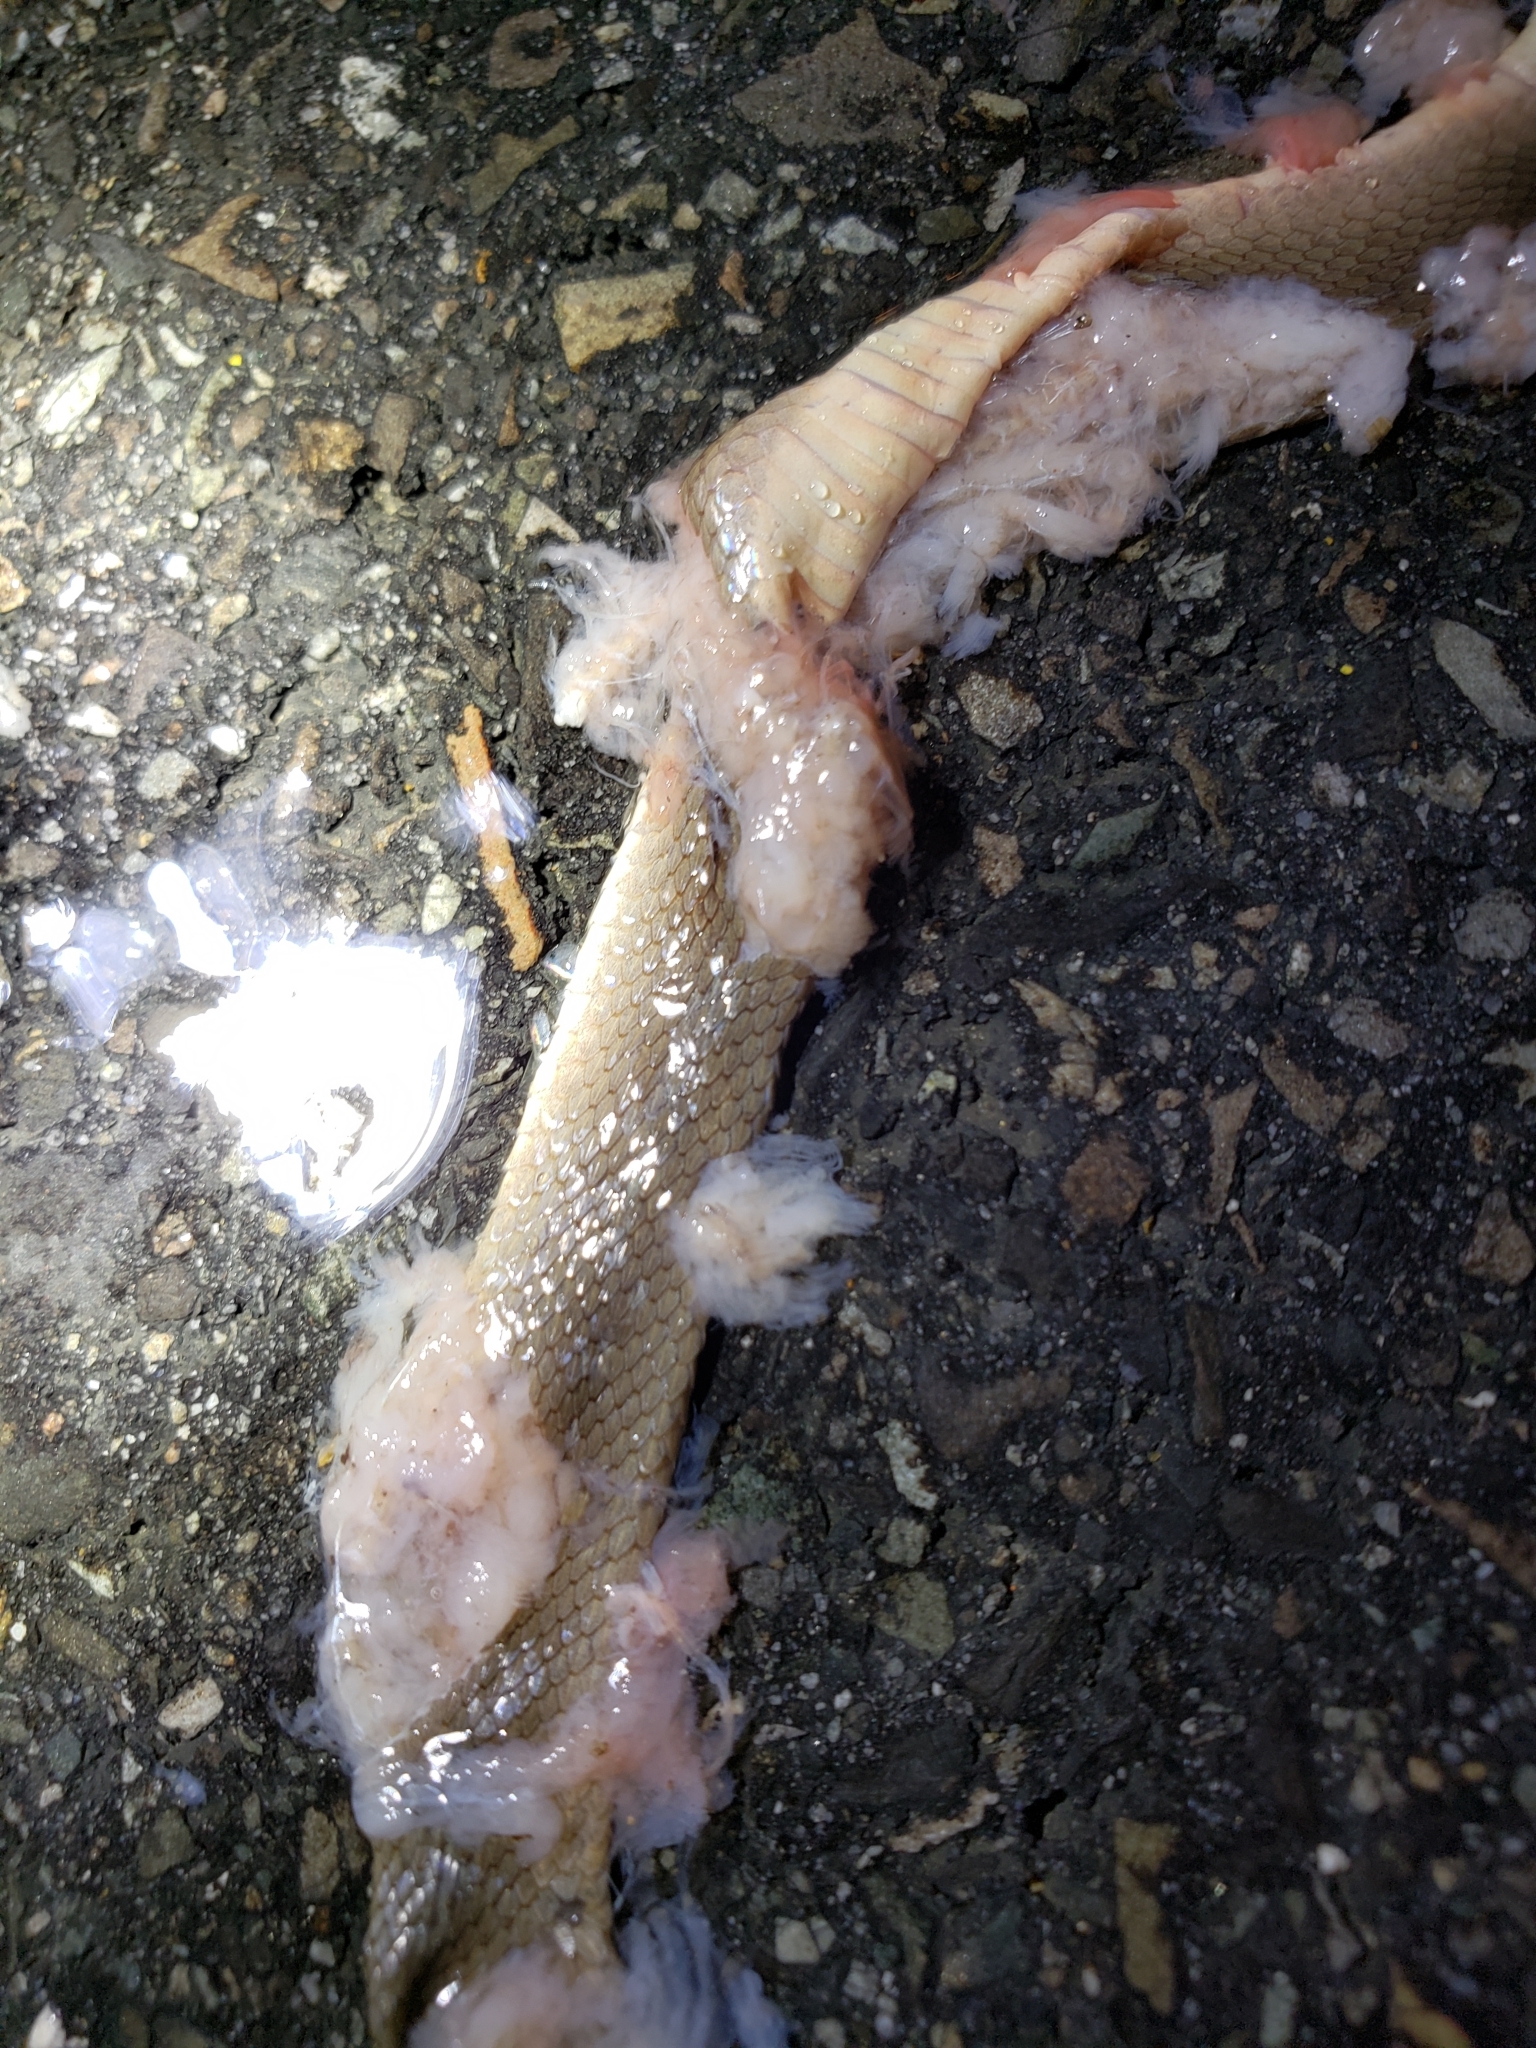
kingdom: Animalia
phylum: Chordata
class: Squamata
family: Colubridae
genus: Haldea
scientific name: Haldea striatula
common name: Rough earth snake
